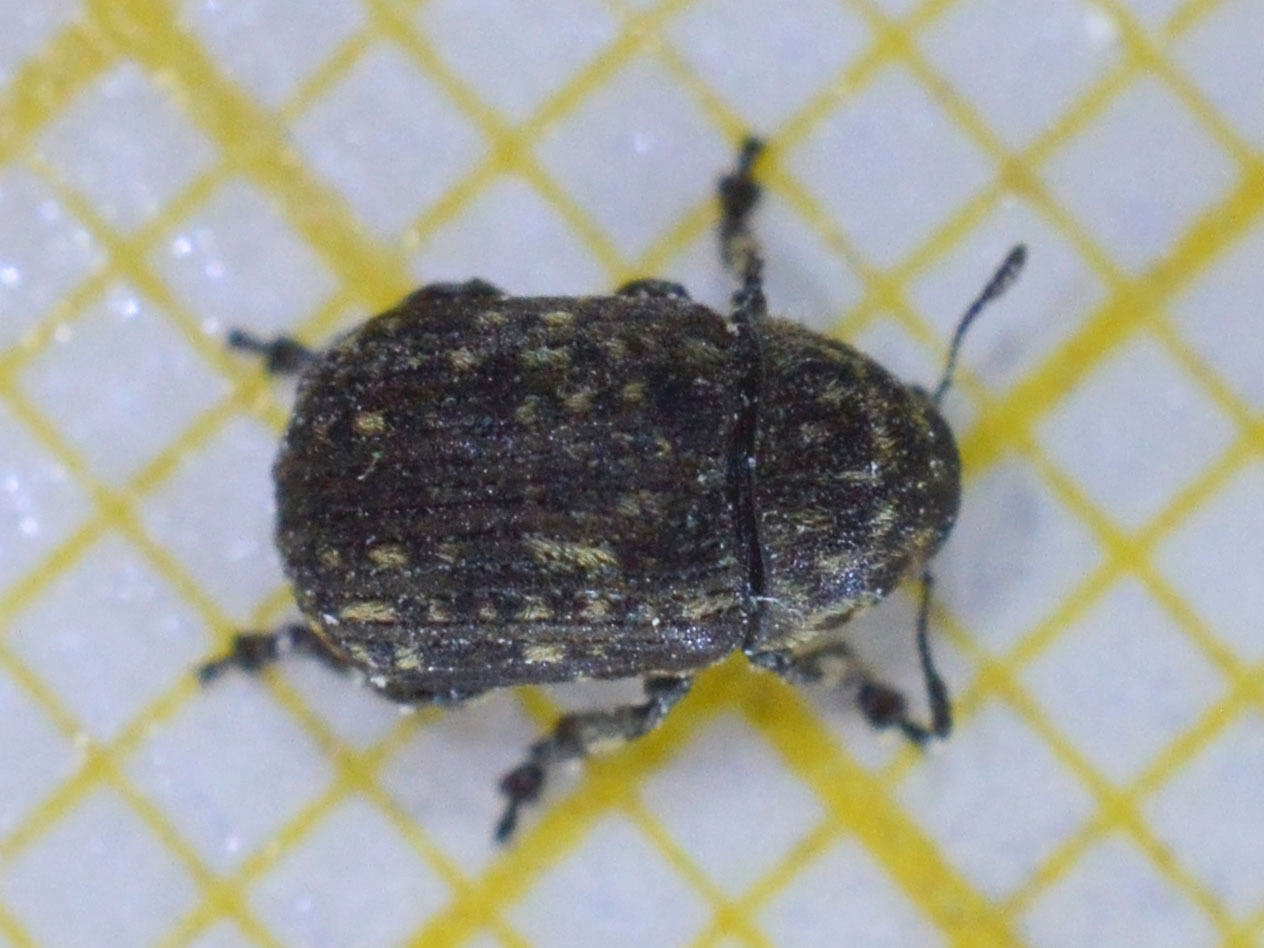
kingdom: Animalia
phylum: Arthropoda
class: Insecta
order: Coleoptera
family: Anthribidae
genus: Anthribus
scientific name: Anthribus nebulosus
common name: Fungus weevil
